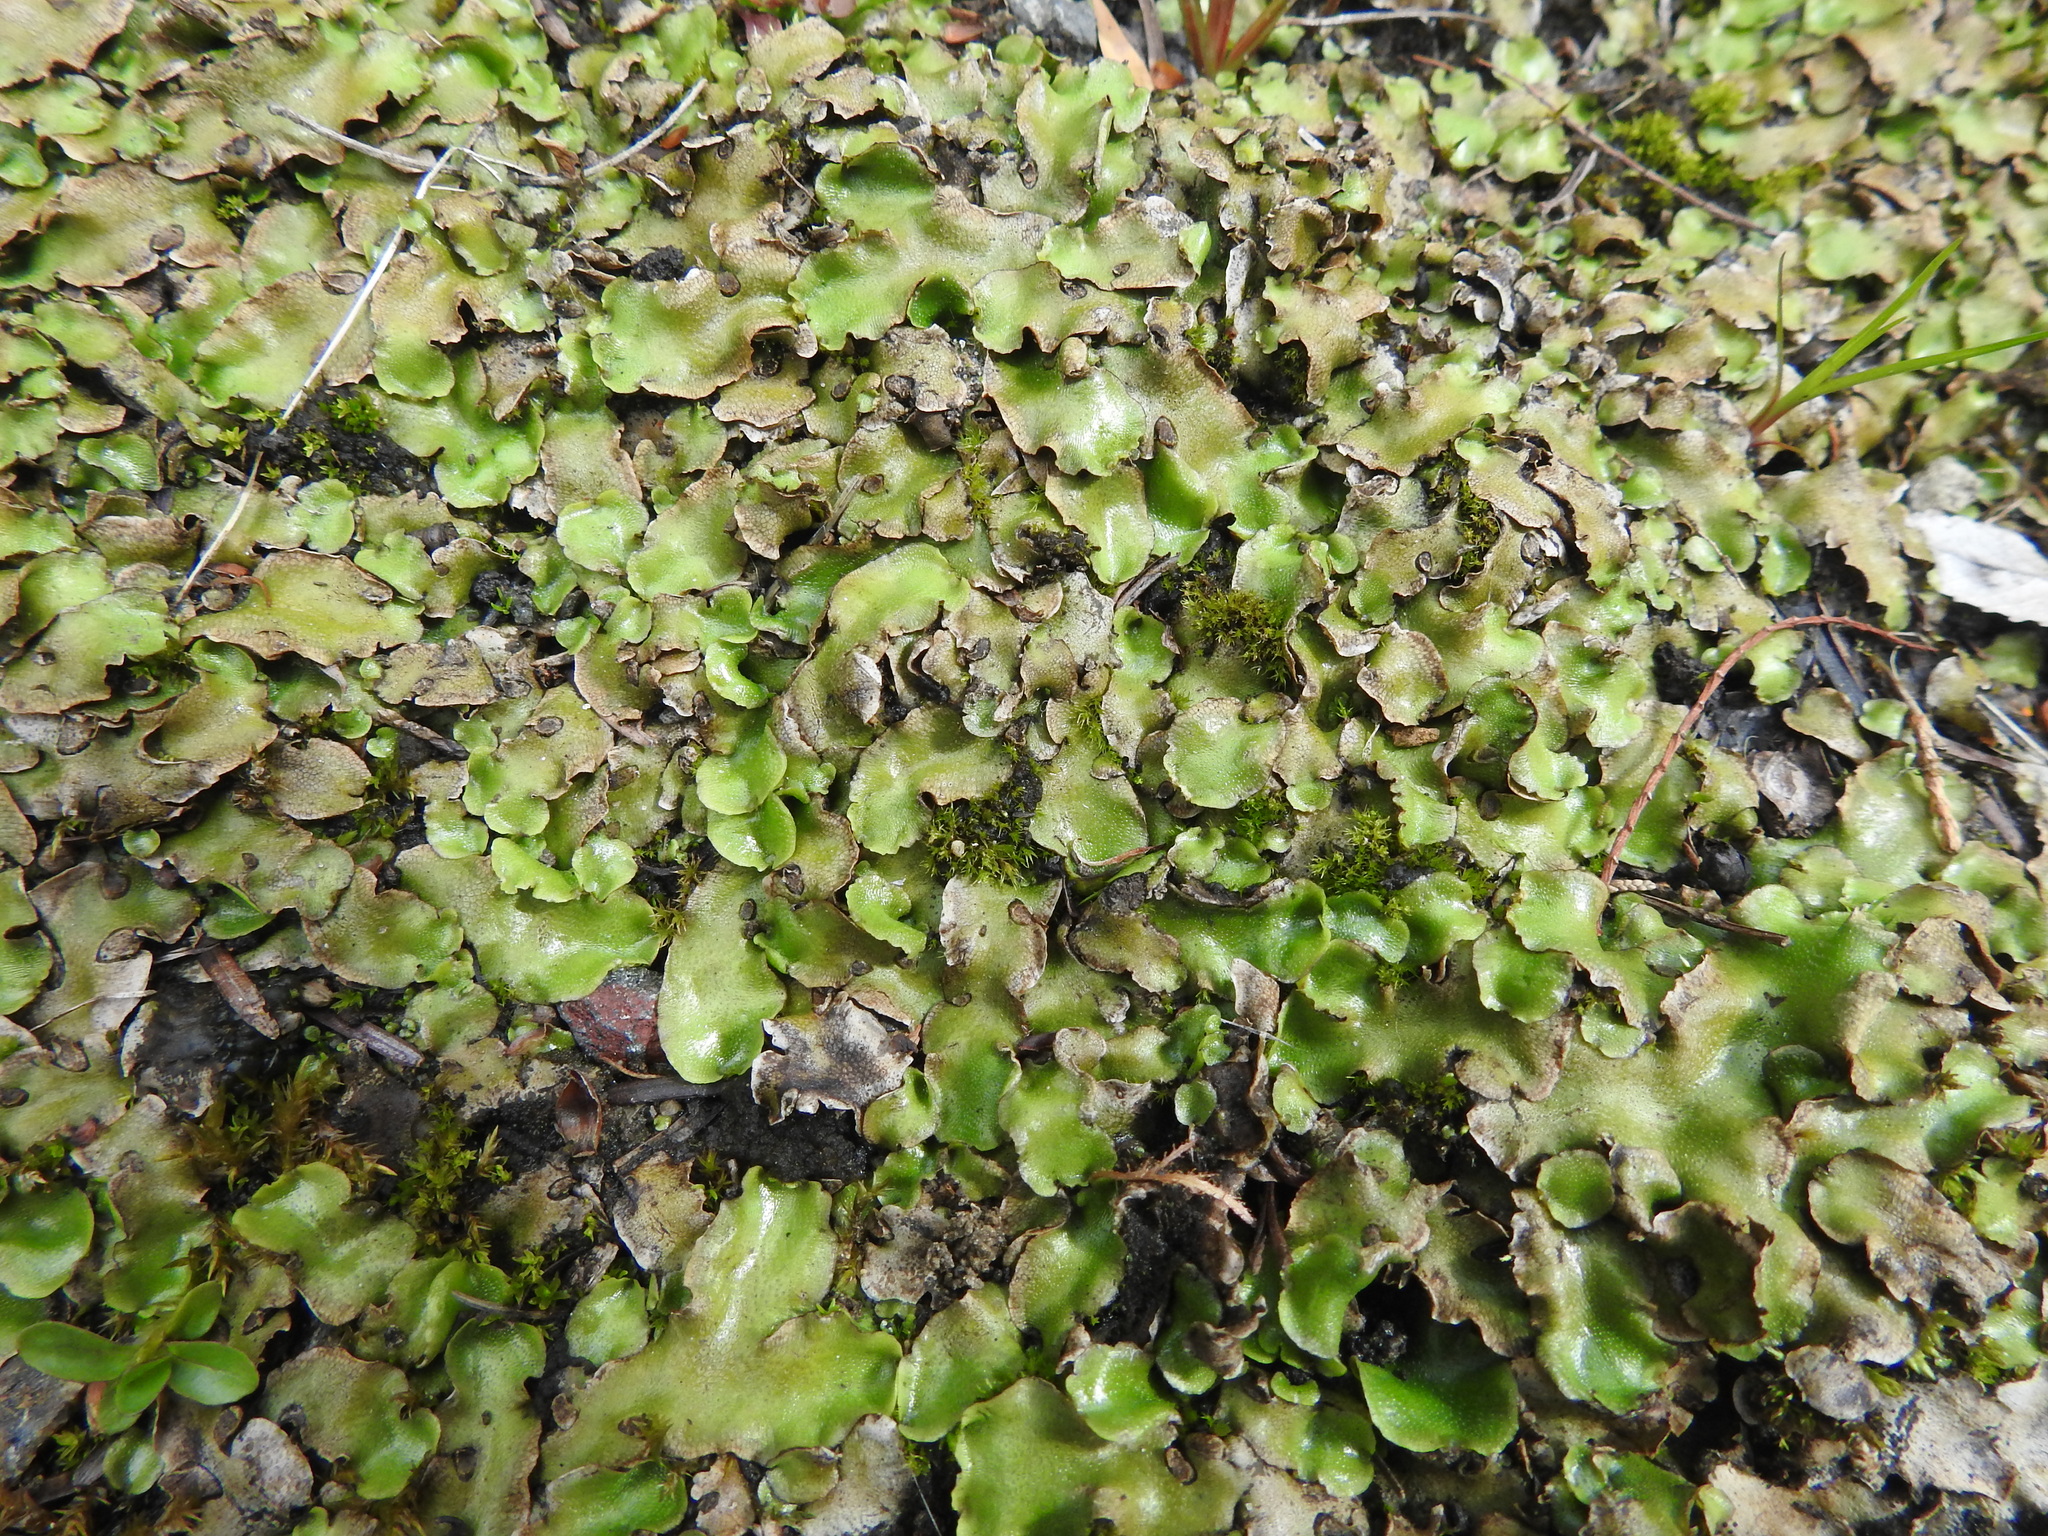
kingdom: Plantae
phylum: Marchantiophyta
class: Marchantiopsida
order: Lunulariales
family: Lunulariaceae
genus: Lunularia
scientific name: Lunularia cruciata
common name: Crescent-cup liverwort
